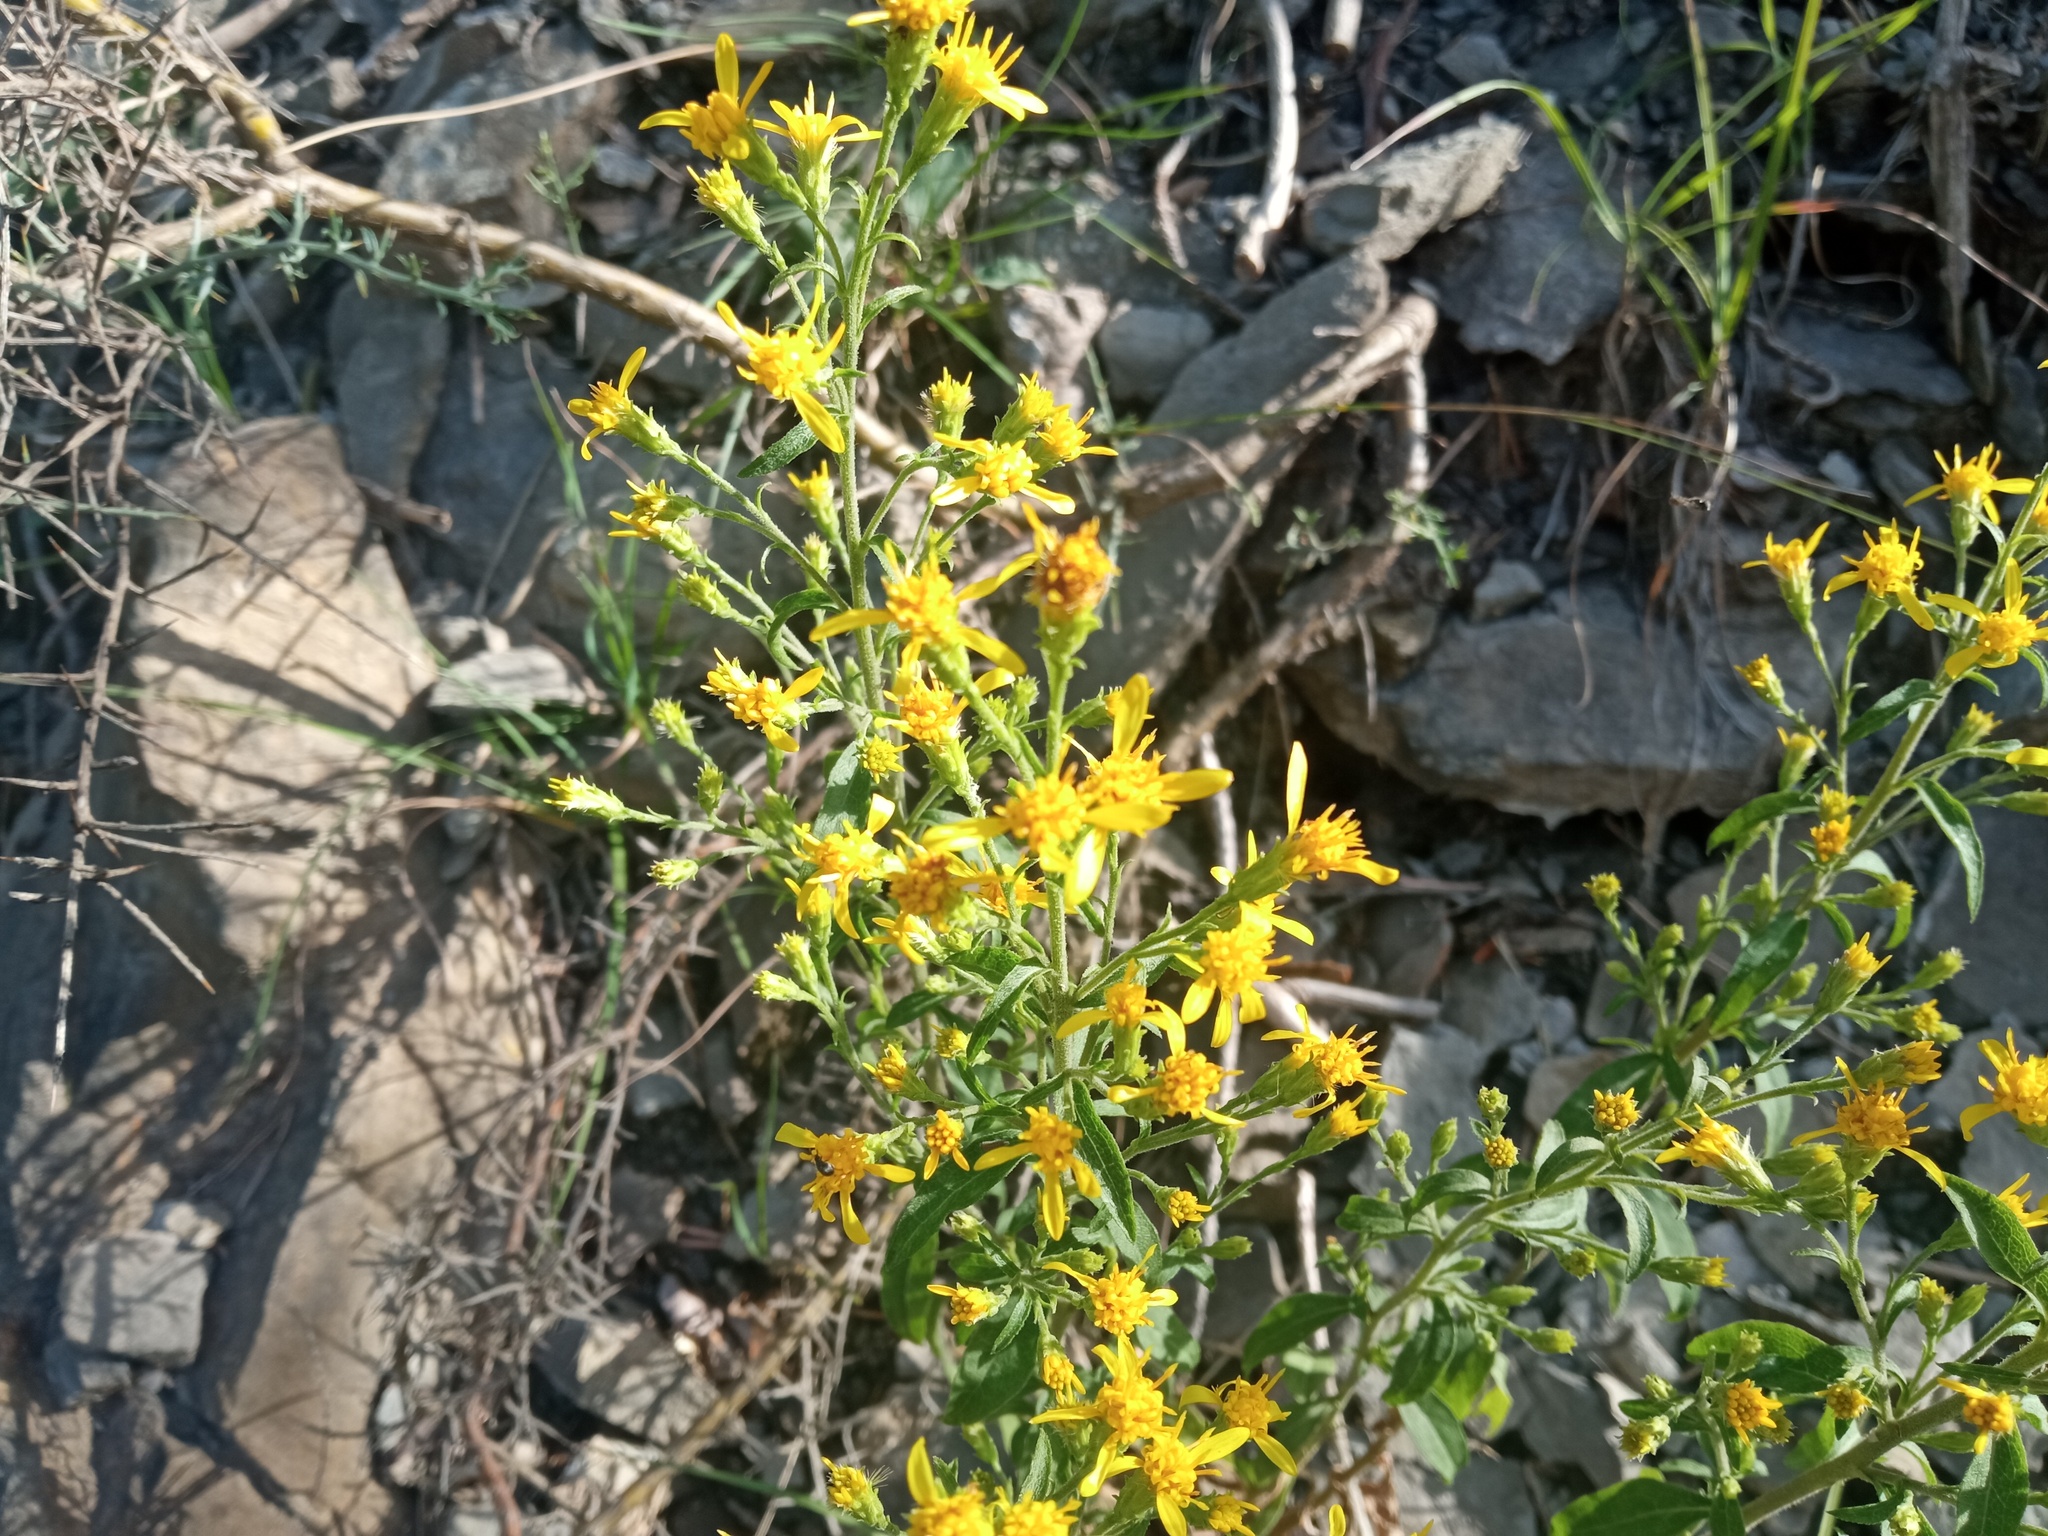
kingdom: Plantae
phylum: Tracheophyta
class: Magnoliopsida
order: Asterales
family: Asteraceae
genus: Solidago
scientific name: Solidago virgaurea
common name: Goldenrod
